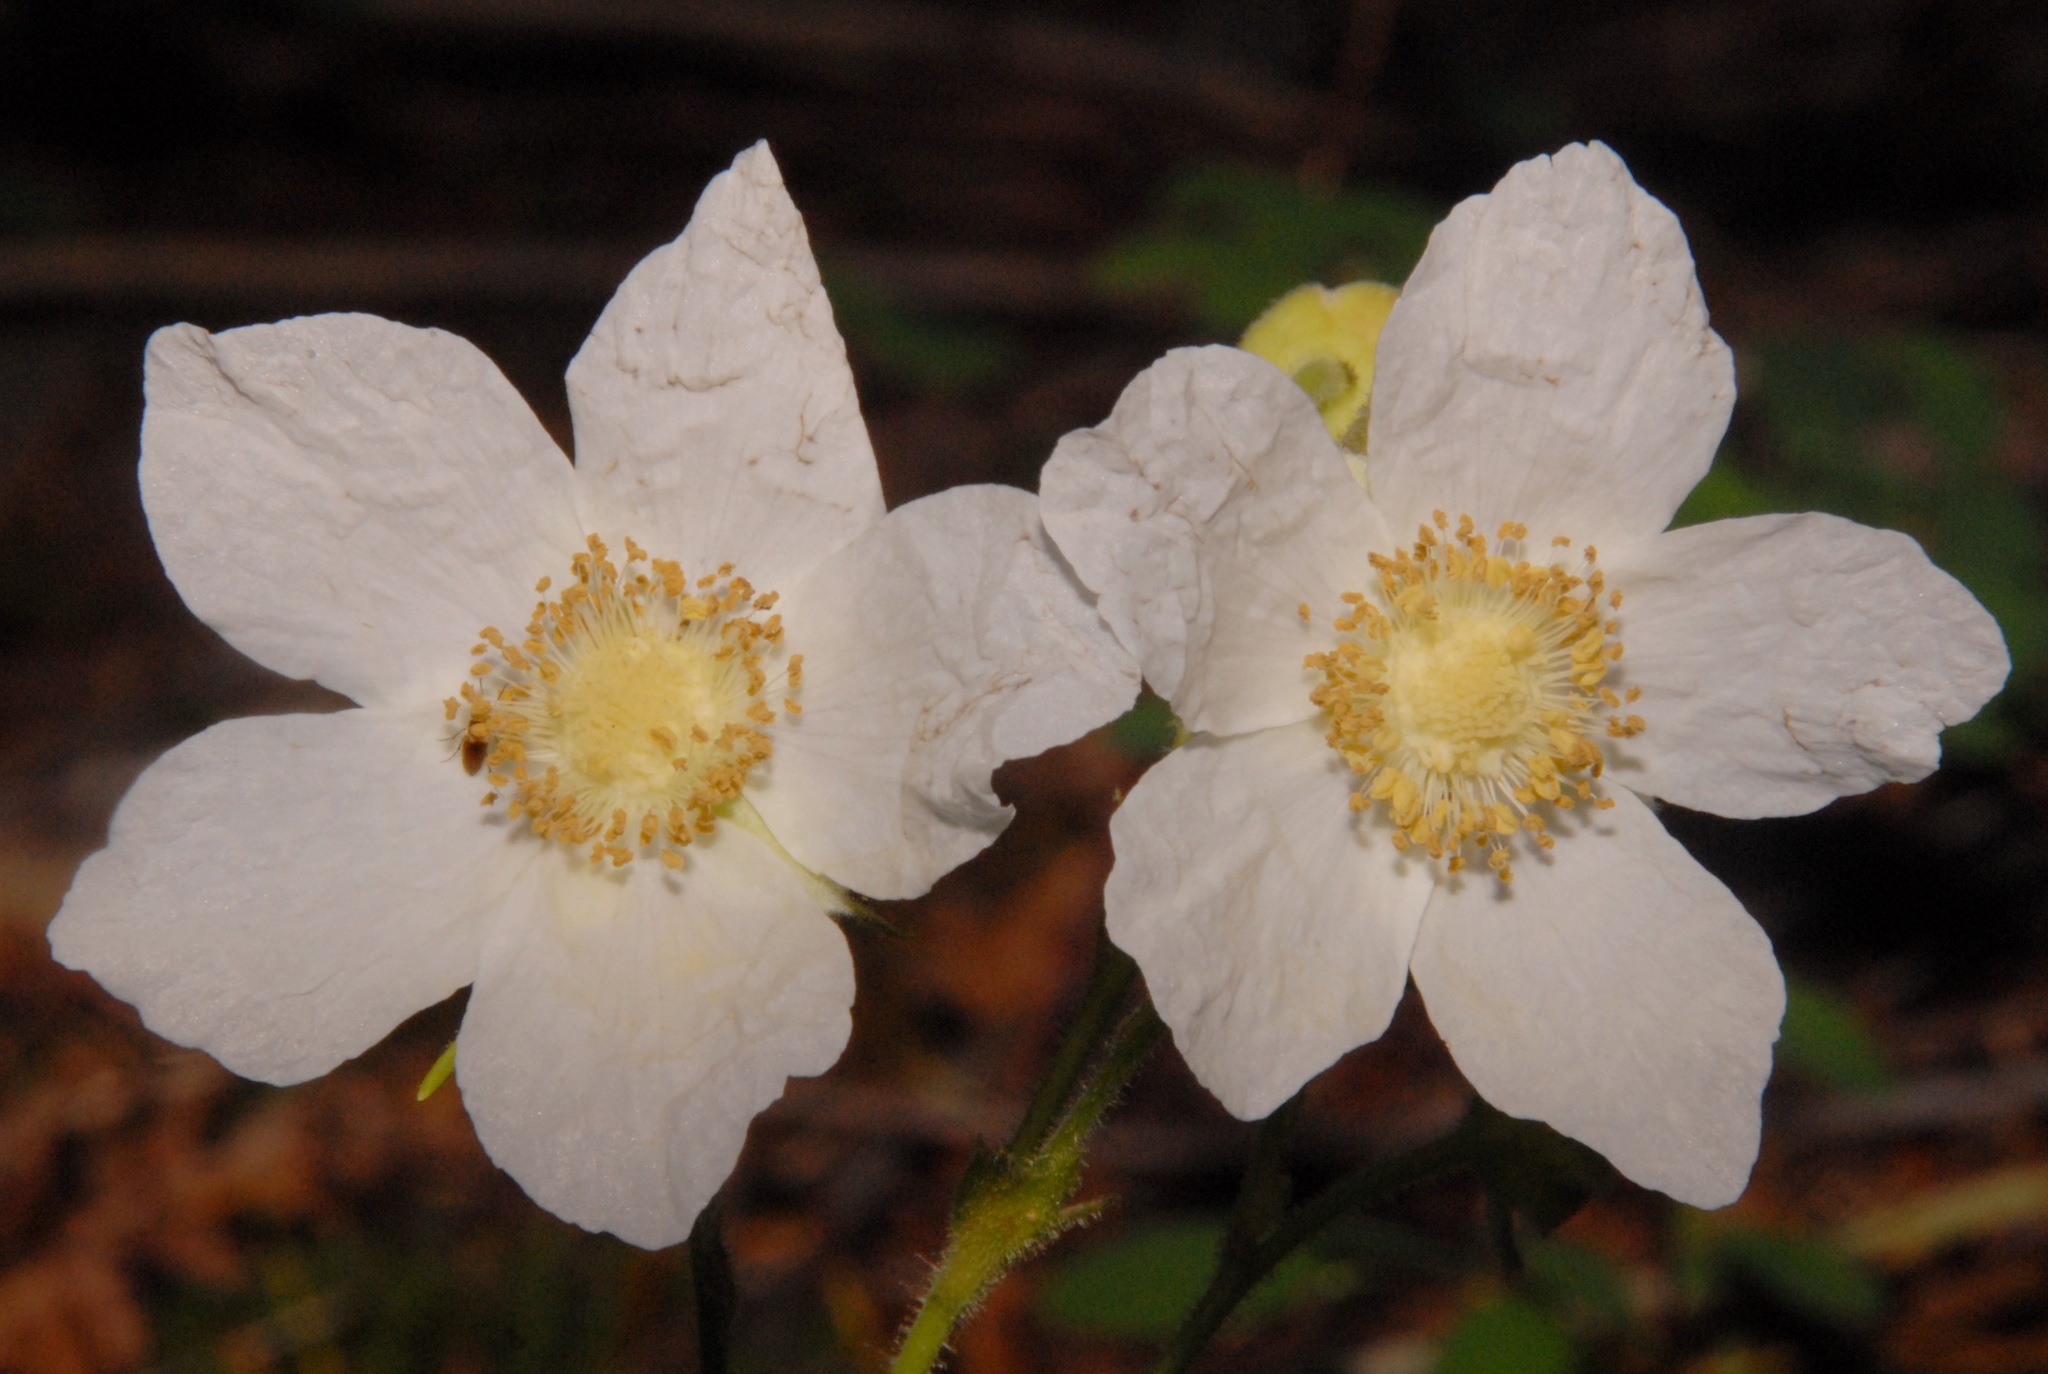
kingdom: Plantae
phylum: Tracheophyta
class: Magnoliopsida
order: Rosales
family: Rosaceae
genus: Rubus
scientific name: Rubus parviflorus
